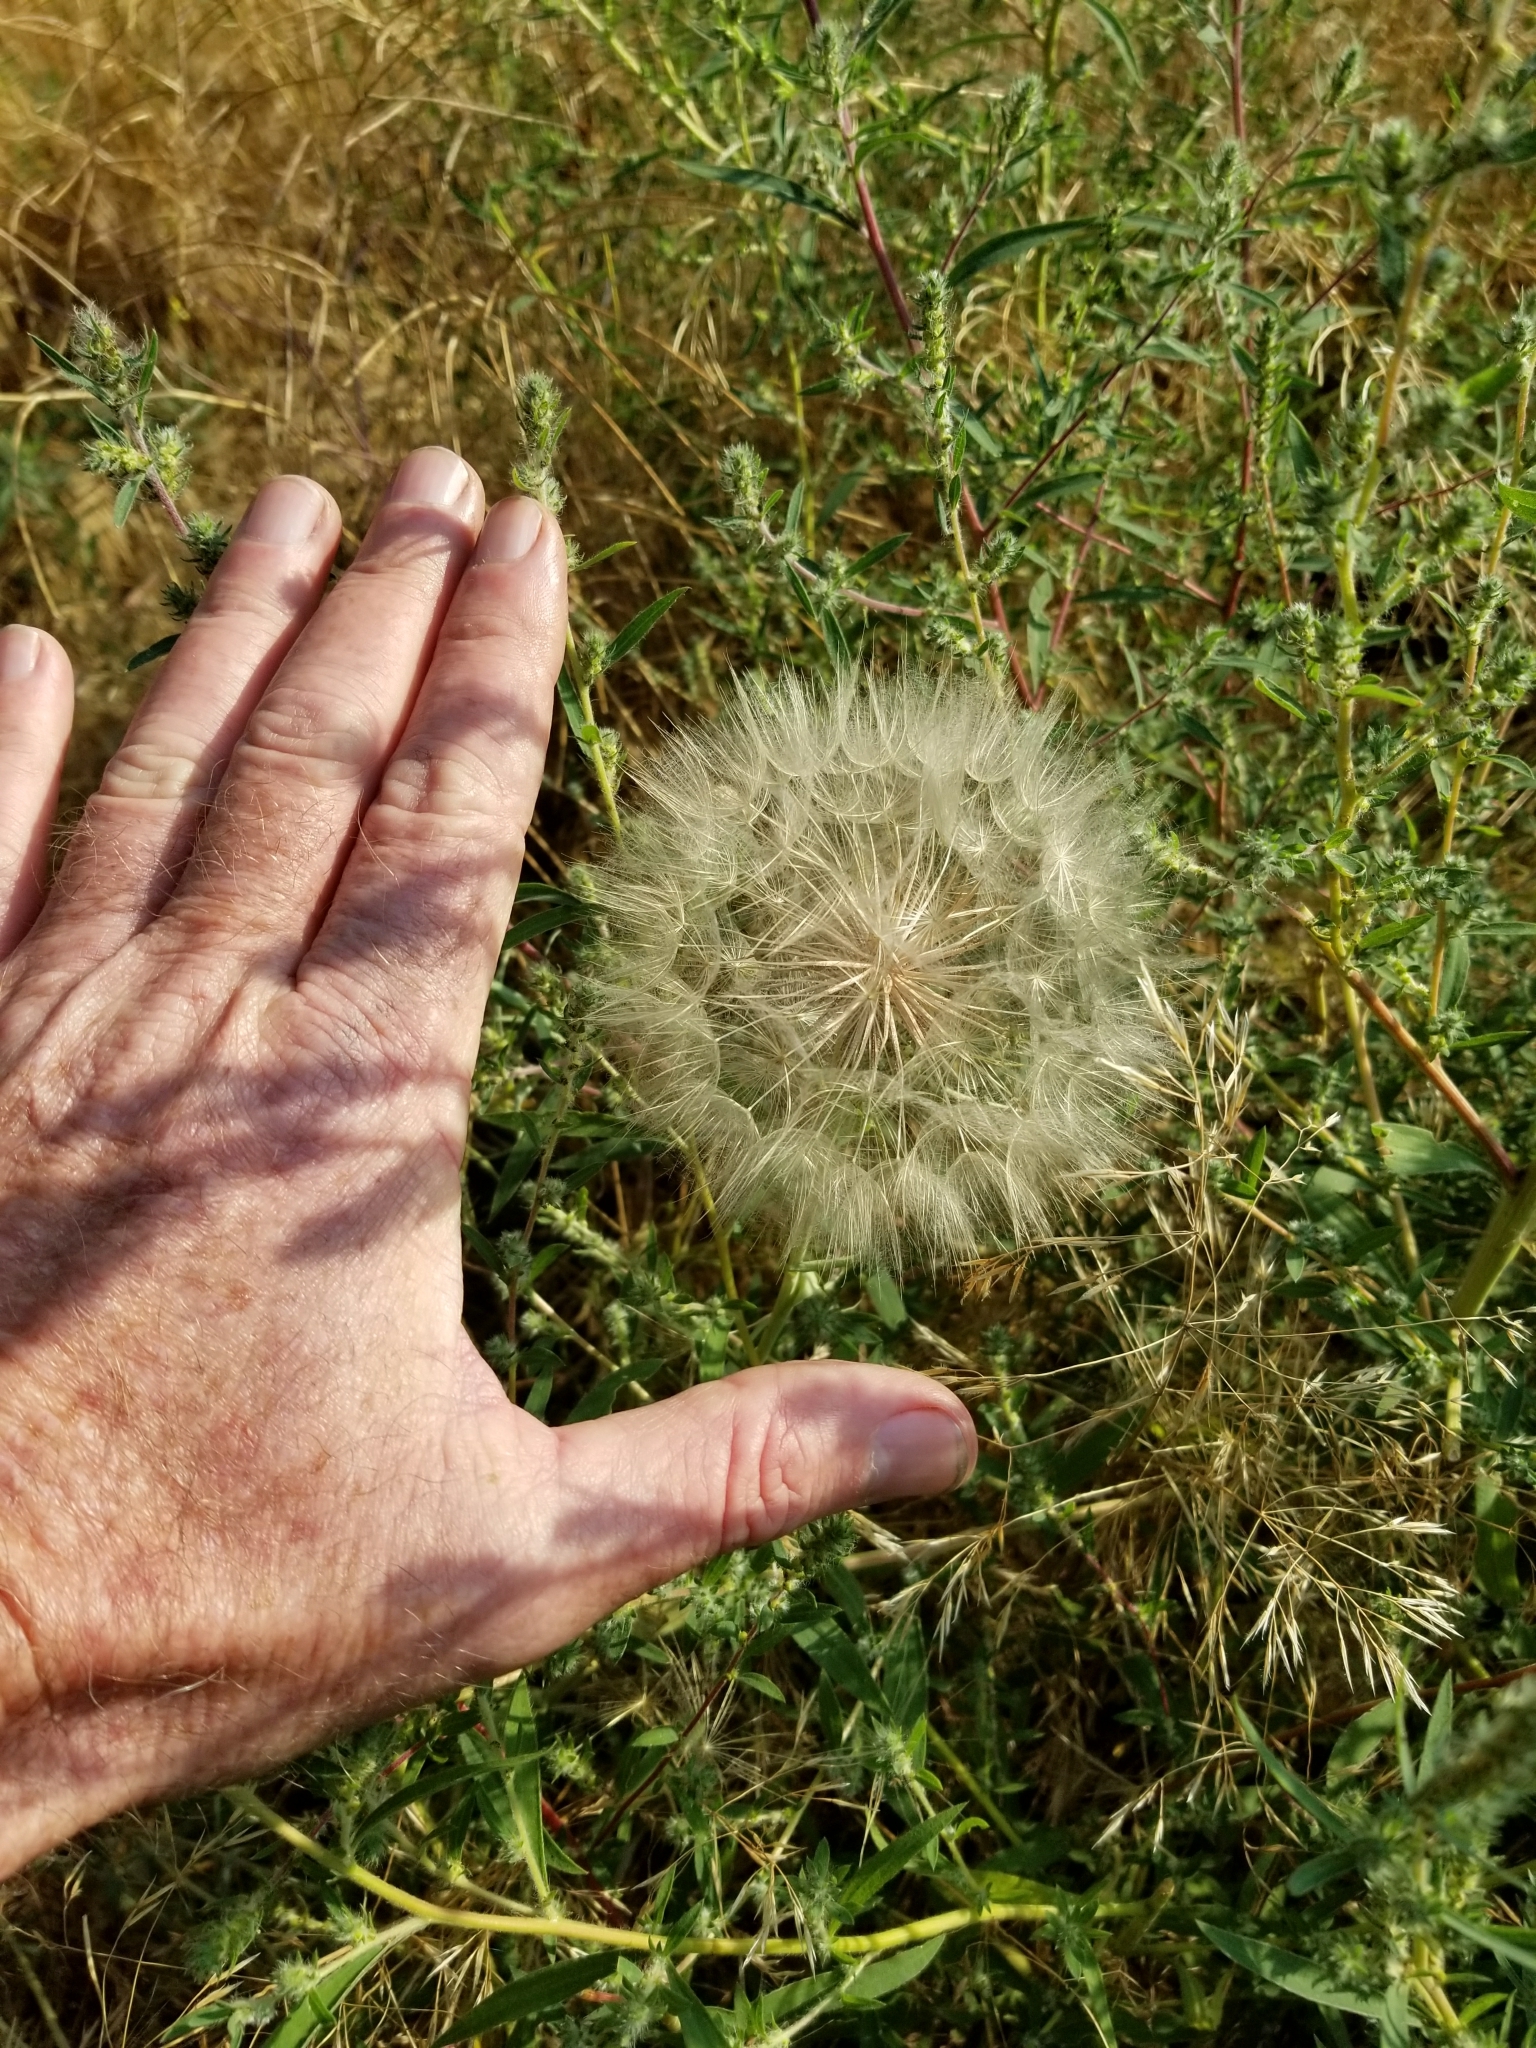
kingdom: Plantae
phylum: Tracheophyta
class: Magnoliopsida
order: Asterales
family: Asteraceae
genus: Tragopogon
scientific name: Tragopogon dubius
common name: Yellow salsify
